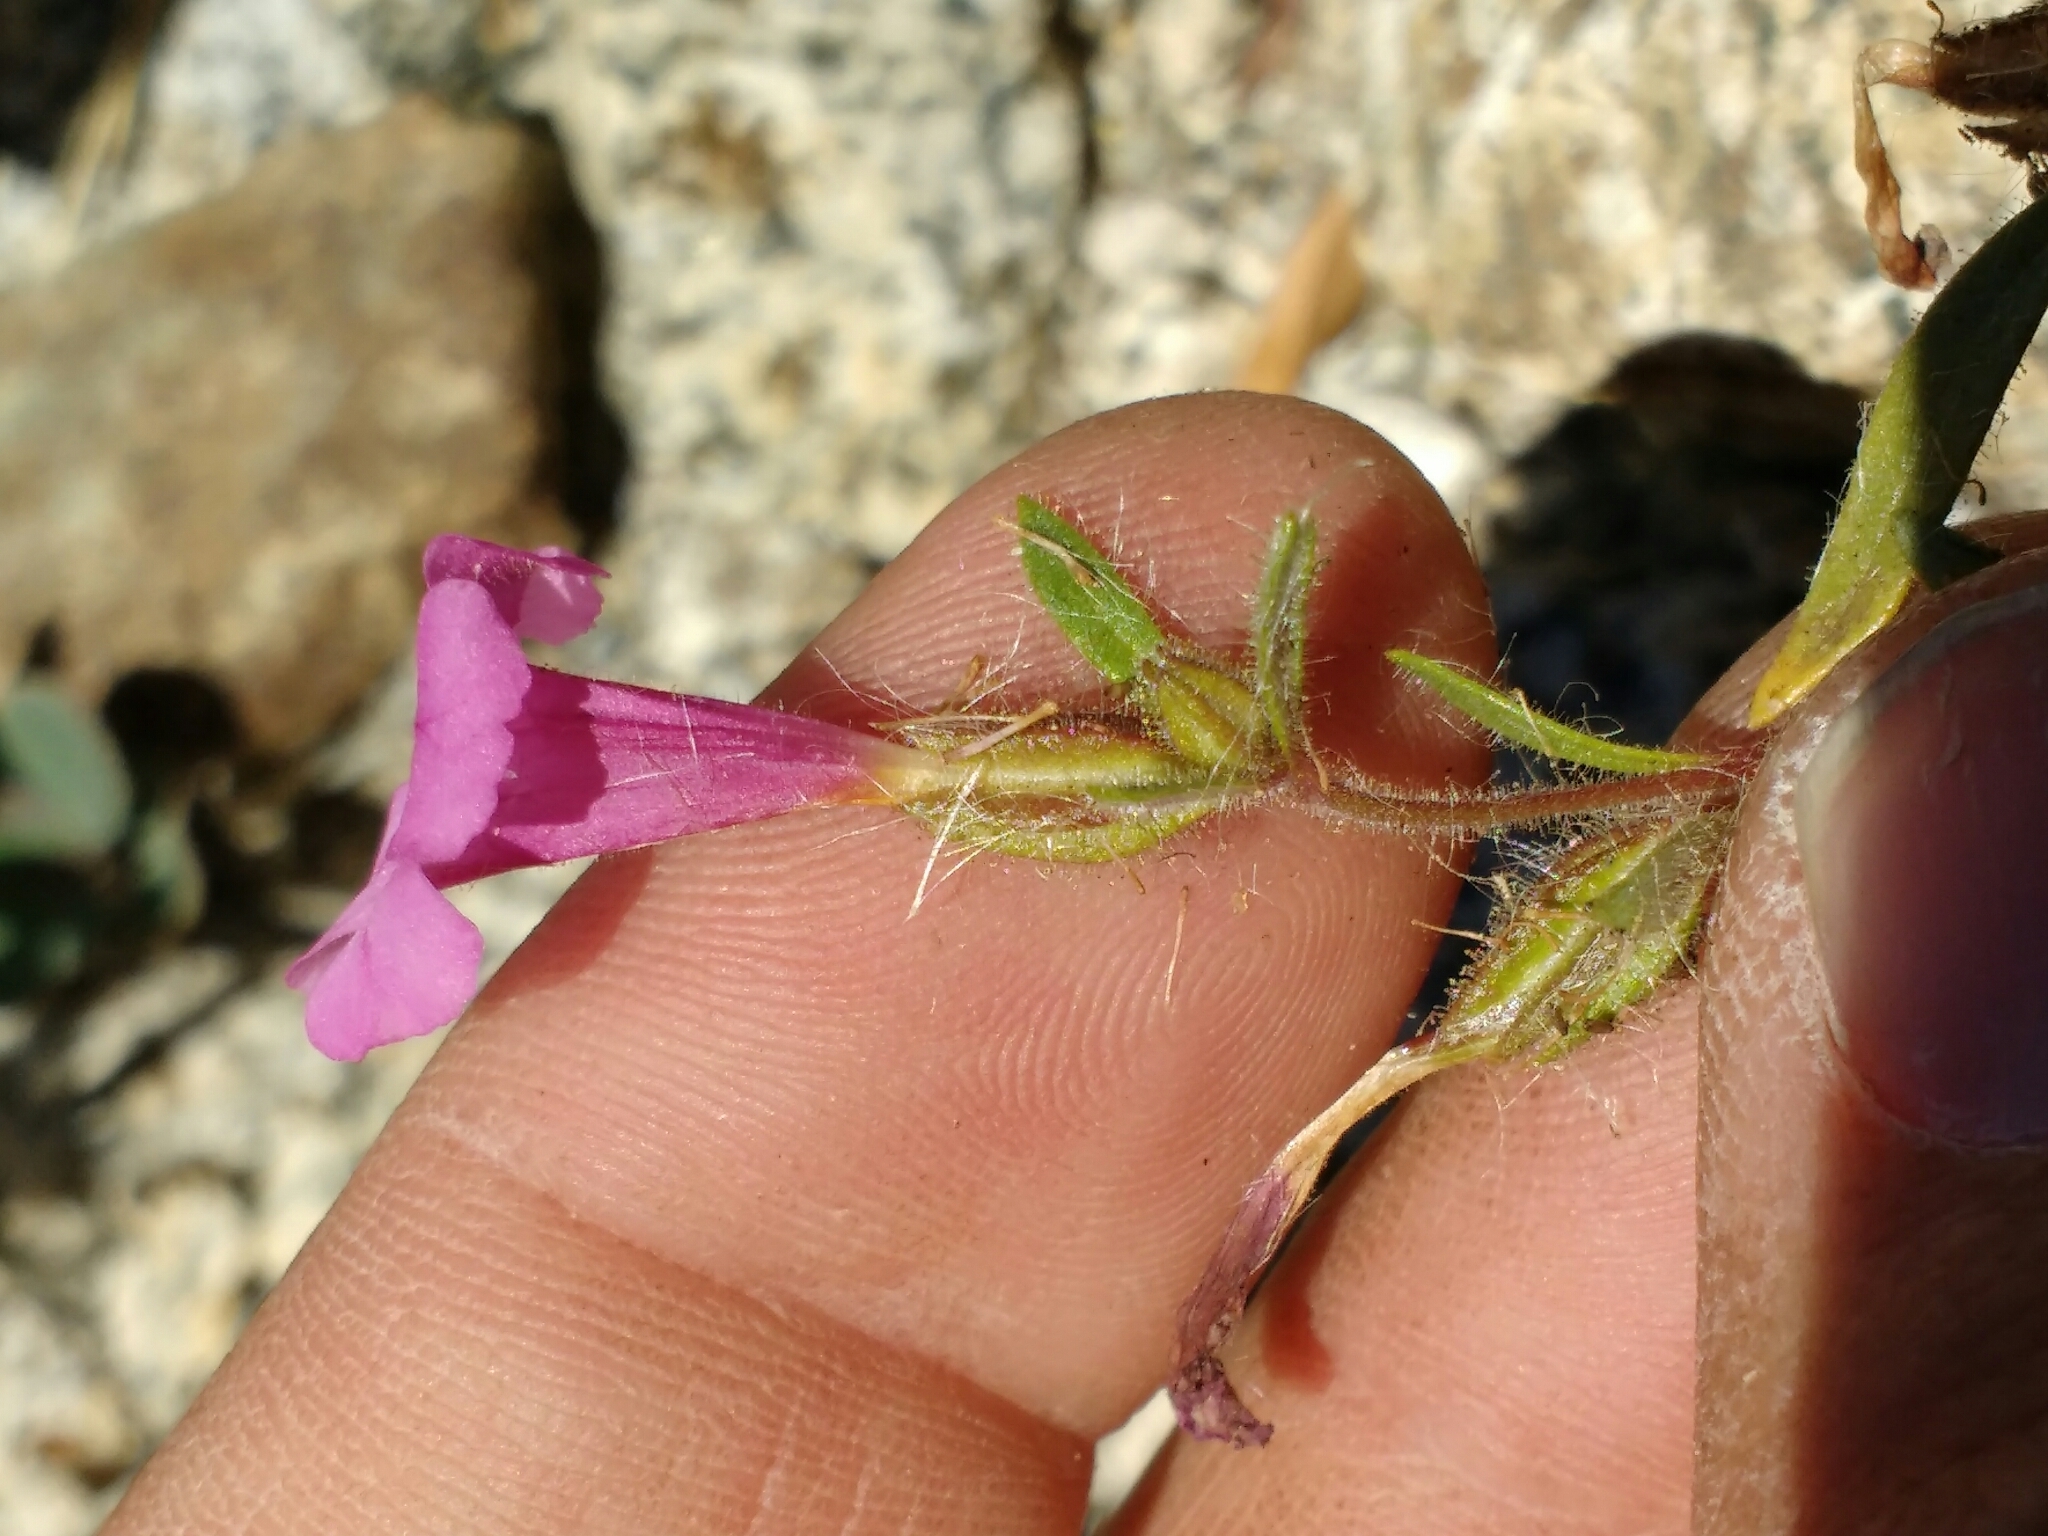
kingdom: Plantae
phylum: Tracheophyta
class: Magnoliopsida
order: Lamiales
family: Phrymaceae
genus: Diplacus
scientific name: Diplacus layneae
